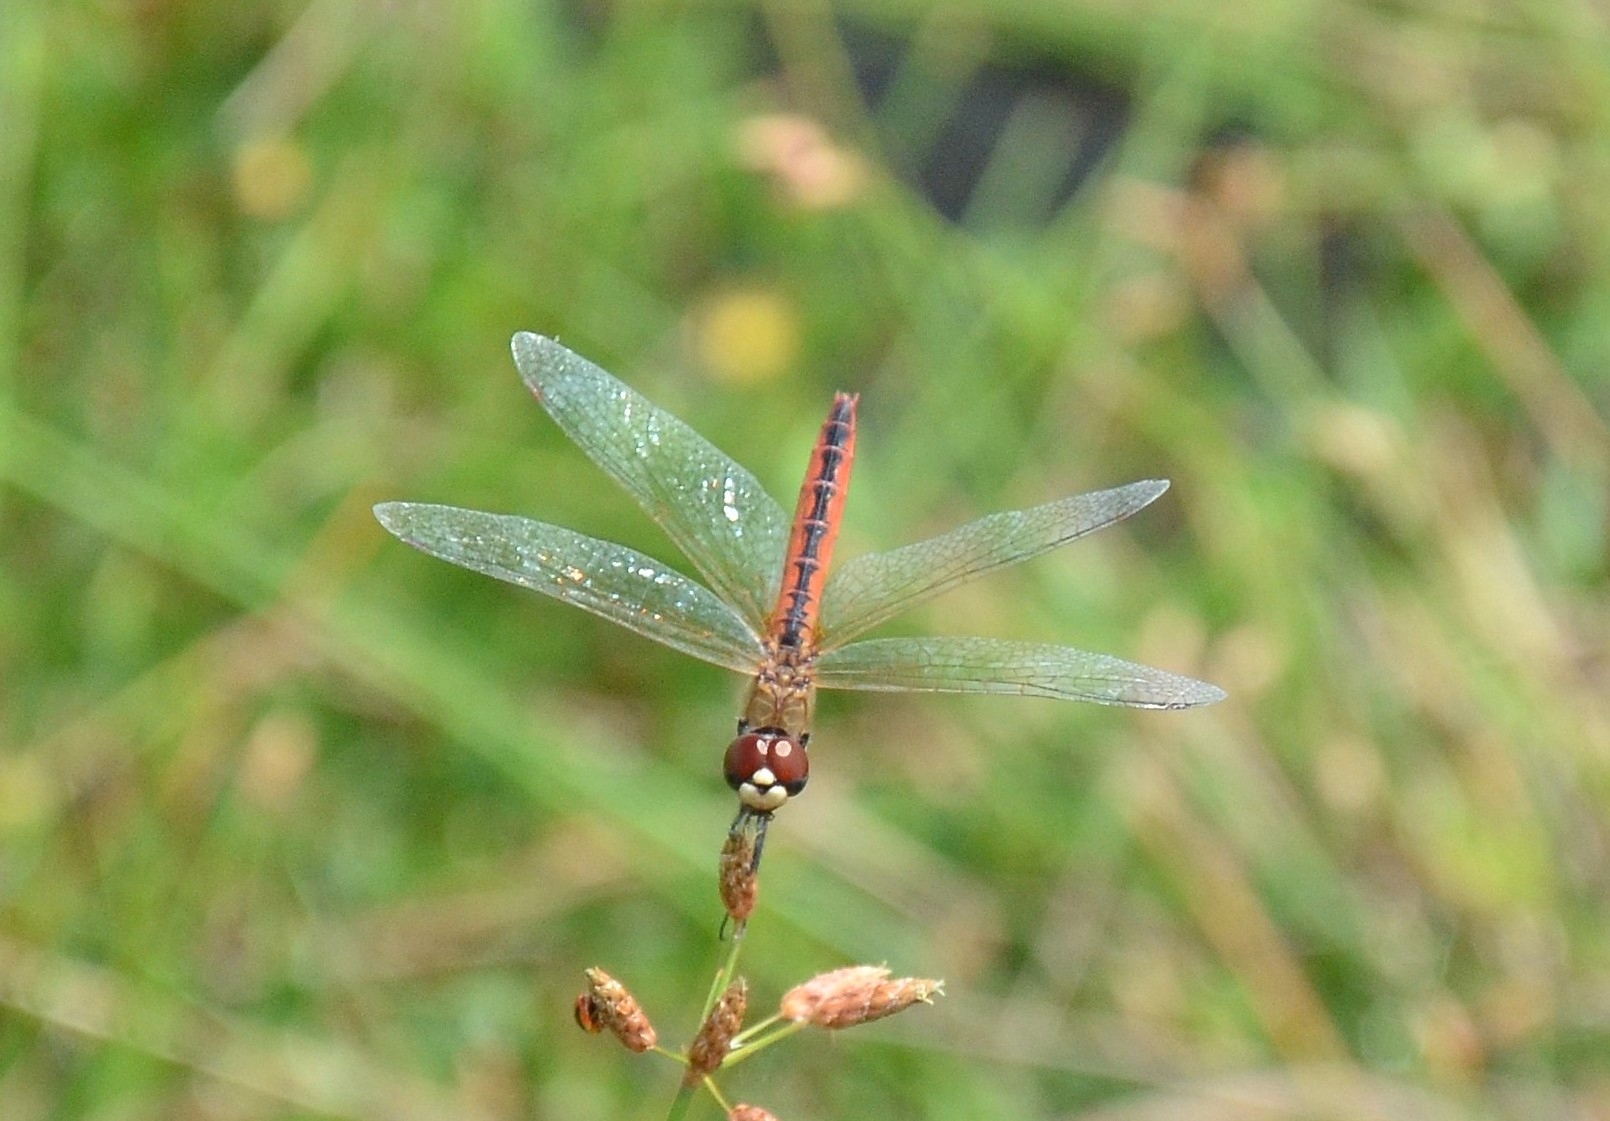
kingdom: Animalia
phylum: Arthropoda
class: Insecta
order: Odonata
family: Libellulidae
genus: Macrodiplax
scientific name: Macrodiplax cora
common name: Coastal glider
